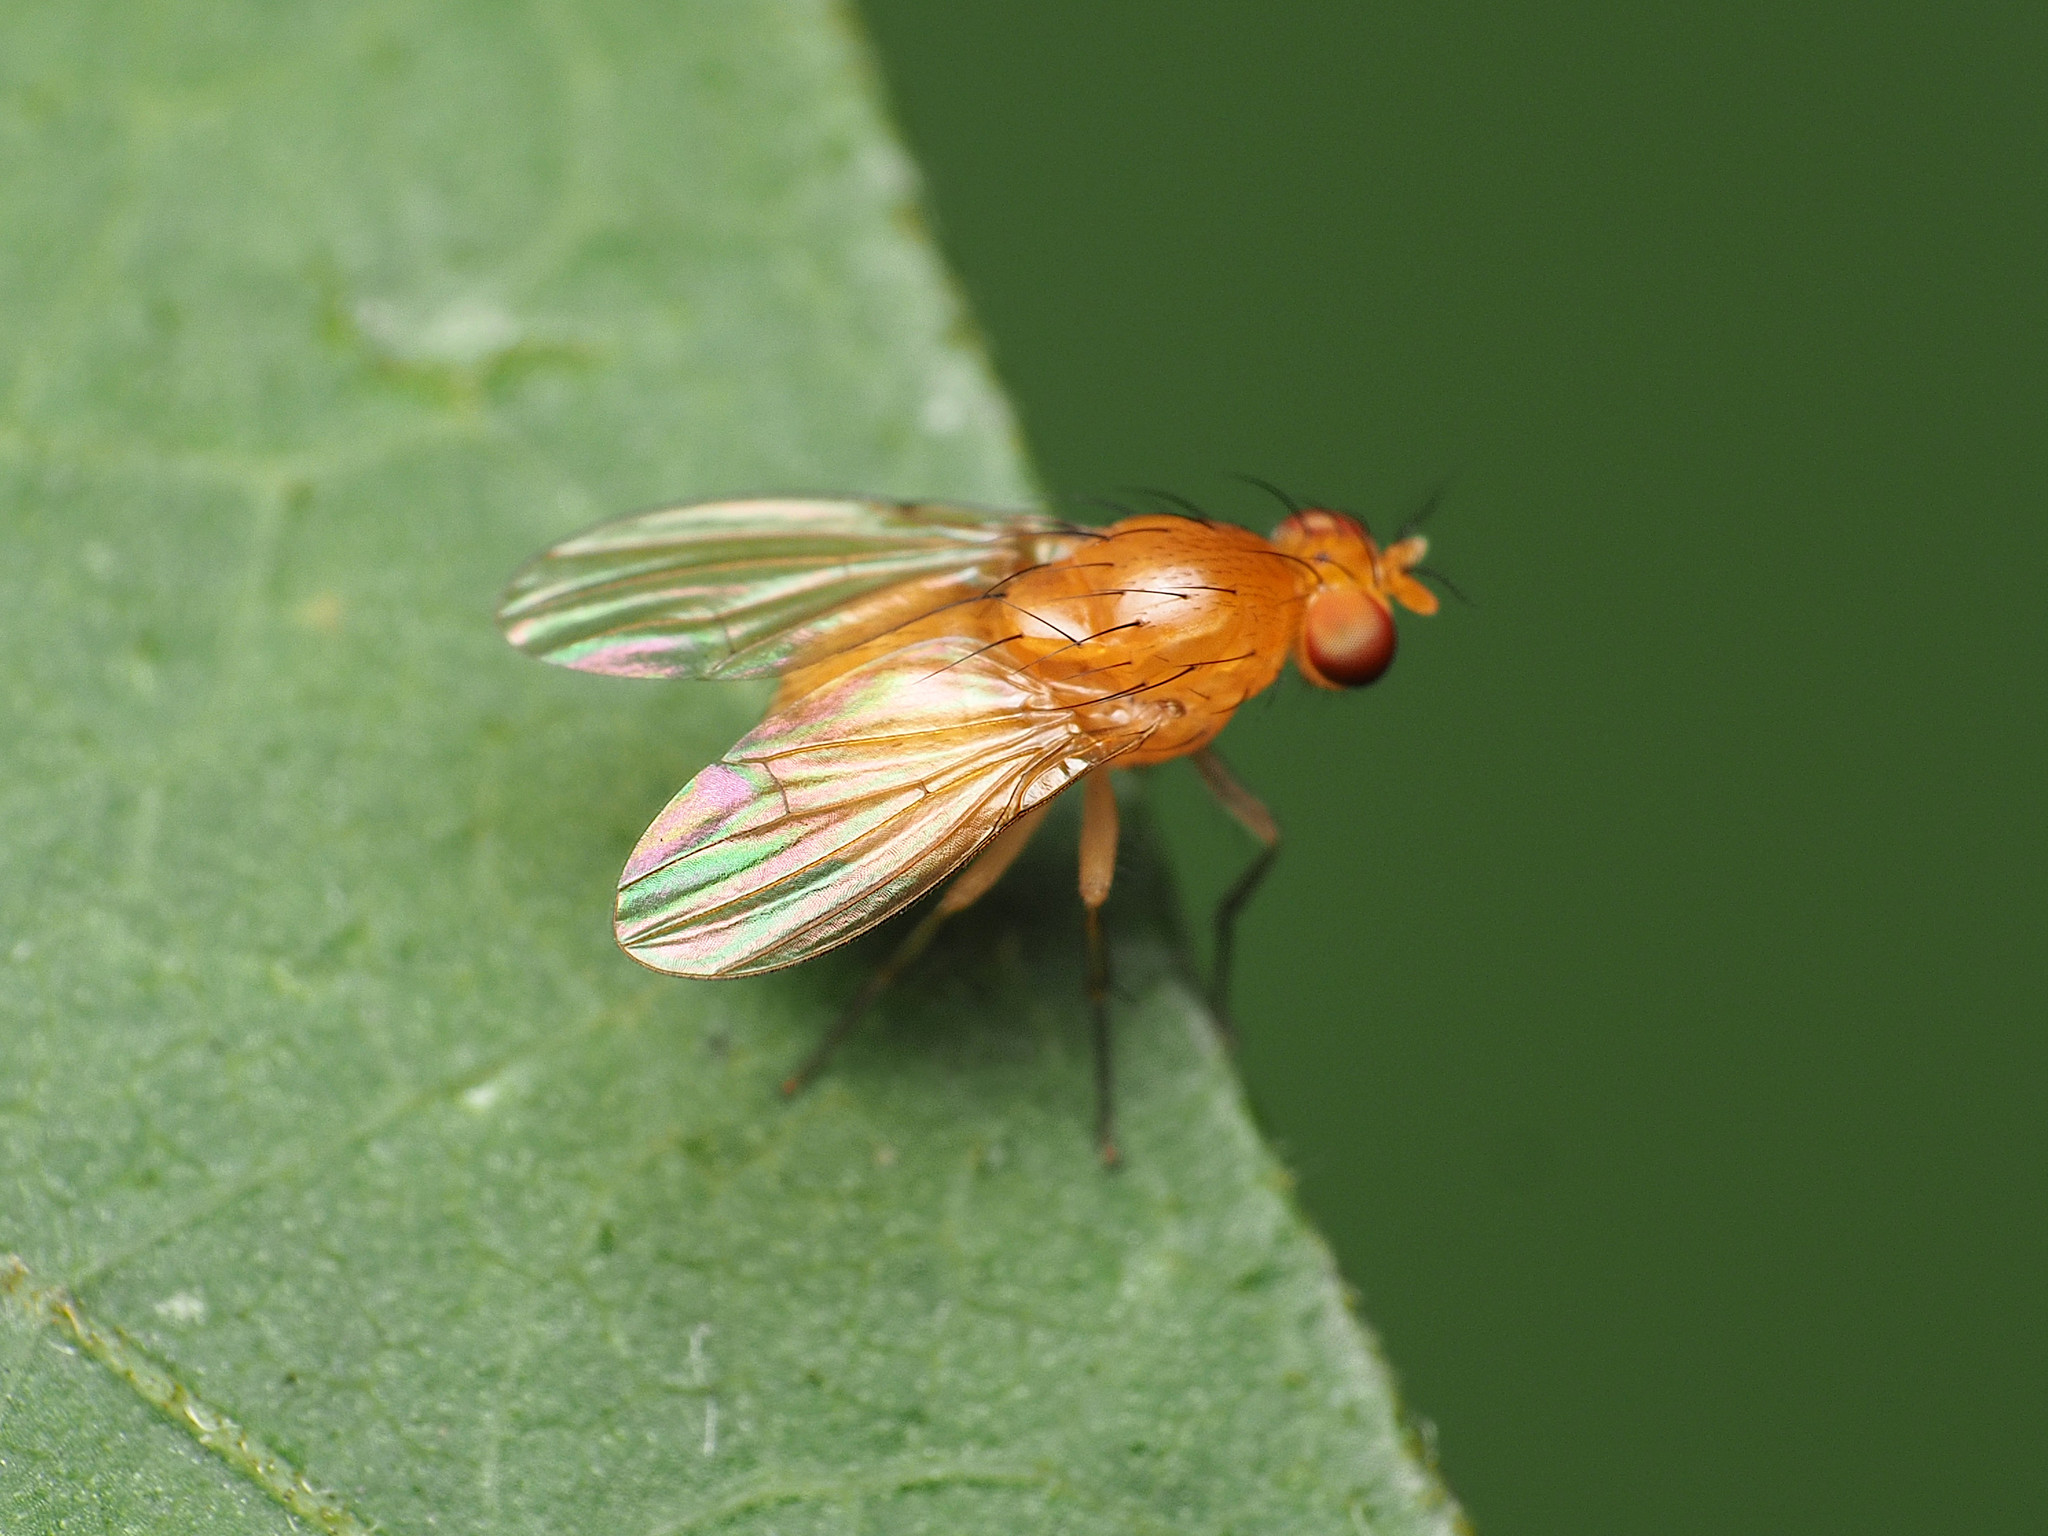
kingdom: Animalia
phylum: Arthropoda
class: Insecta
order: Diptera
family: Lauxaniidae
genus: Neogriphoneura
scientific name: Neogriphoneura sordida
